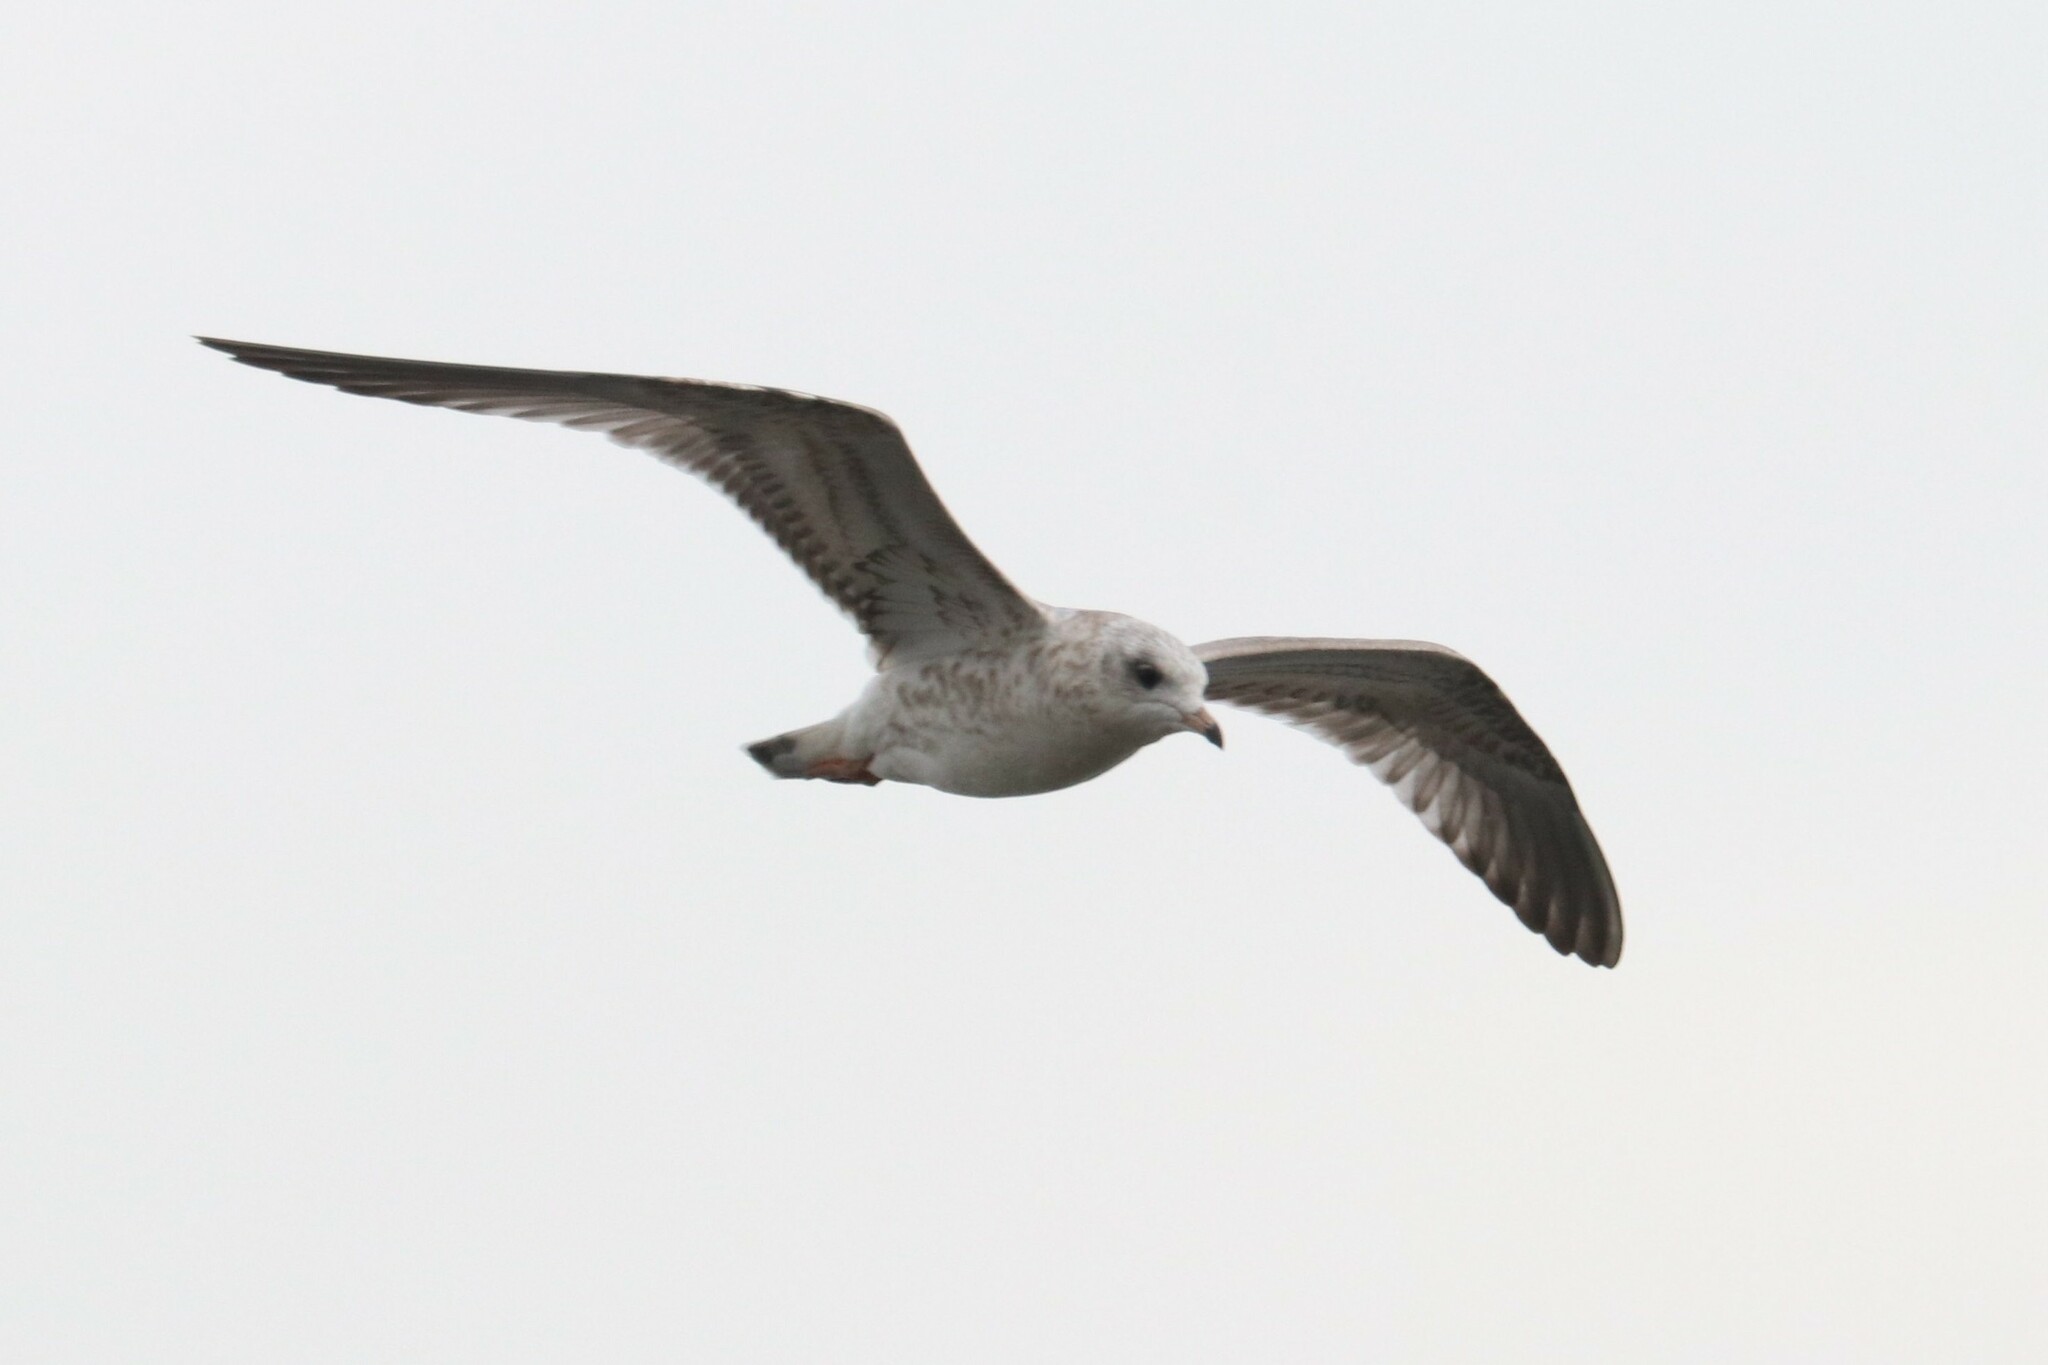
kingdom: Animalia
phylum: Chordata
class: Aves
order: Charadriiformes
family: Laridae
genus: Larus
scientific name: Larus canus
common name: Mew gull
